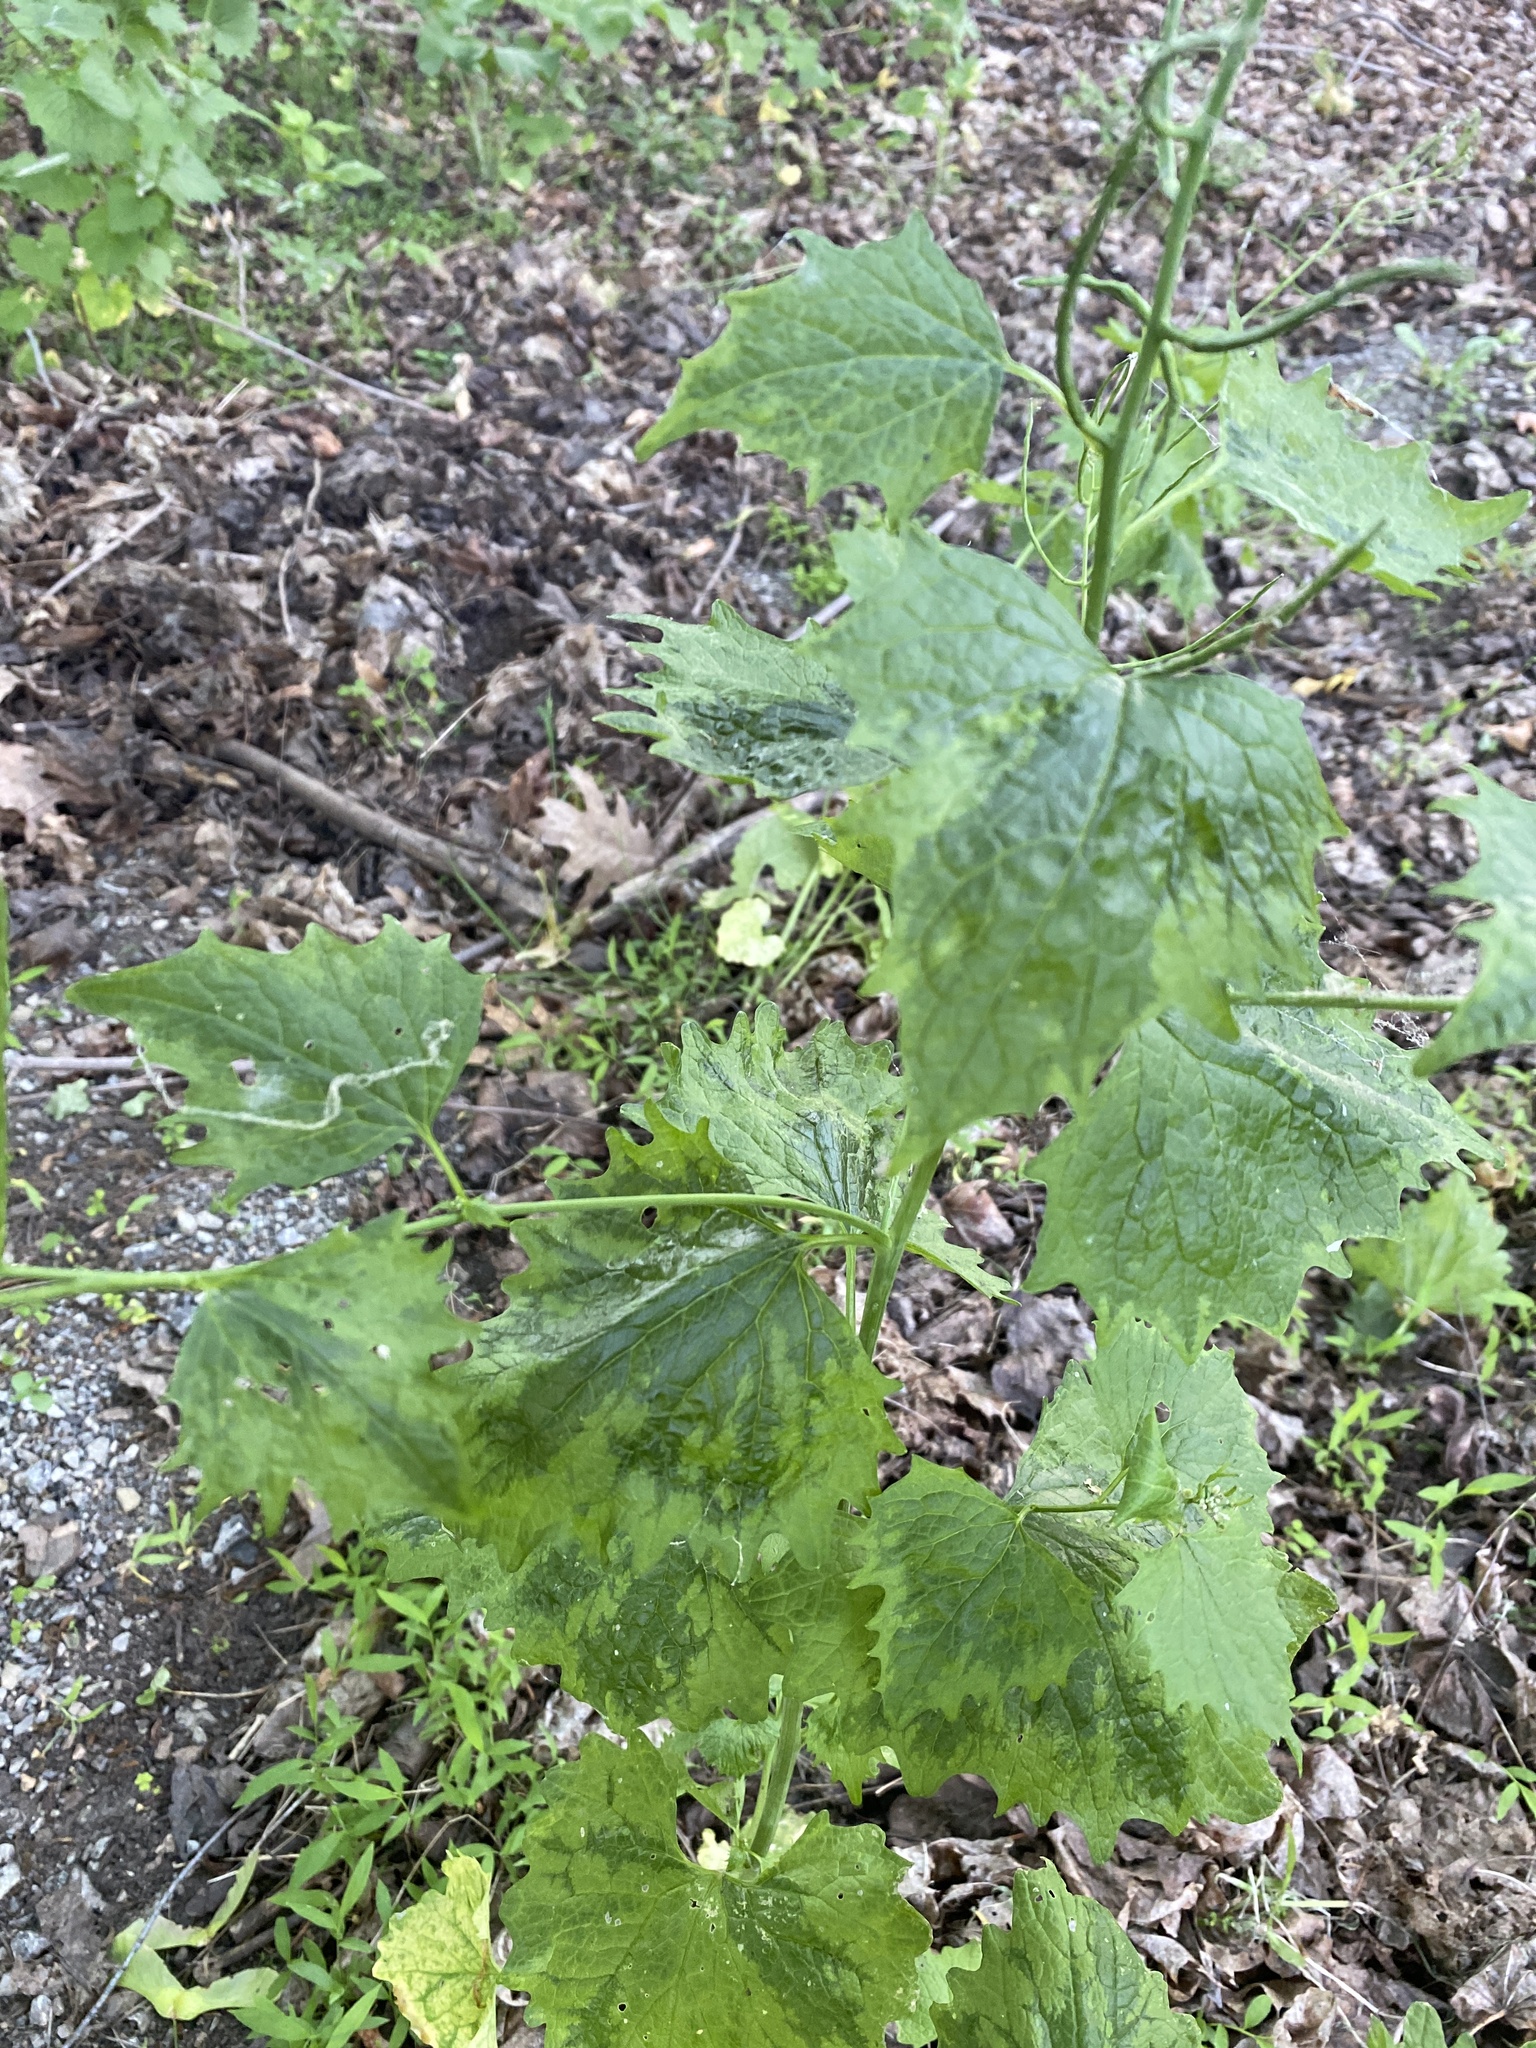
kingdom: Plantae
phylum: Tracheophyta
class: Magnoliopsida
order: Brassicales
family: Brassicaceae
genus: Alliaria
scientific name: Alliaria petiolata
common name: Garlic mustard
